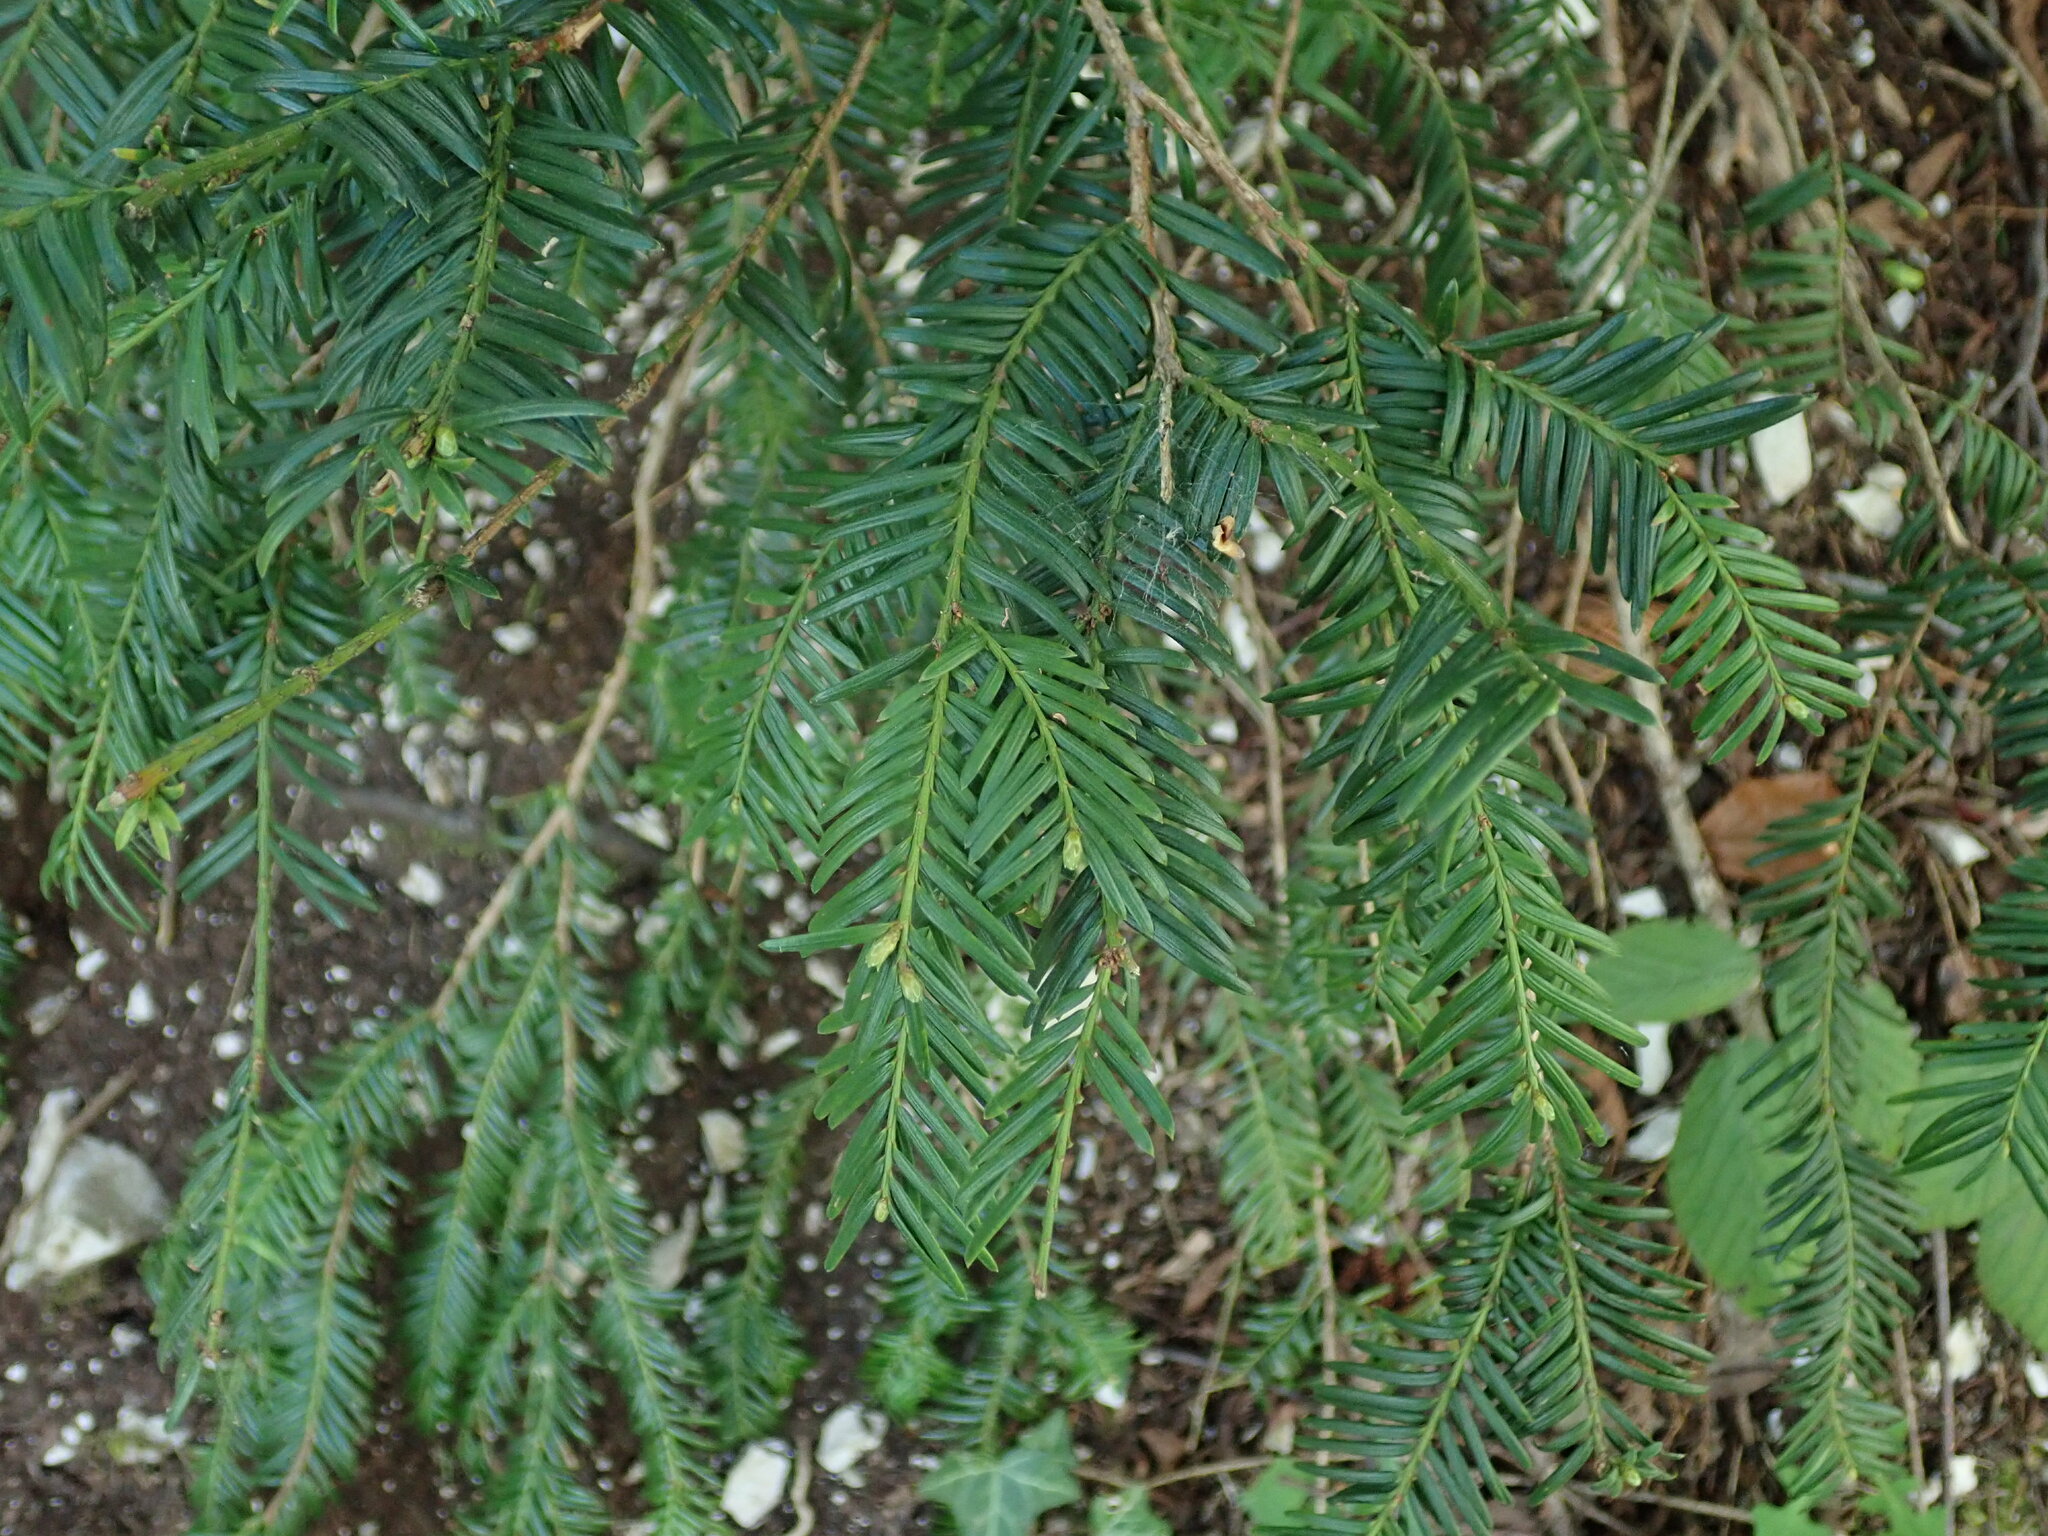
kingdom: Plantae
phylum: Tracheophyta
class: Pinopsida
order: Pinales
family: Taxaceae
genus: Taxus
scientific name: Taxus baccata
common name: Yew
